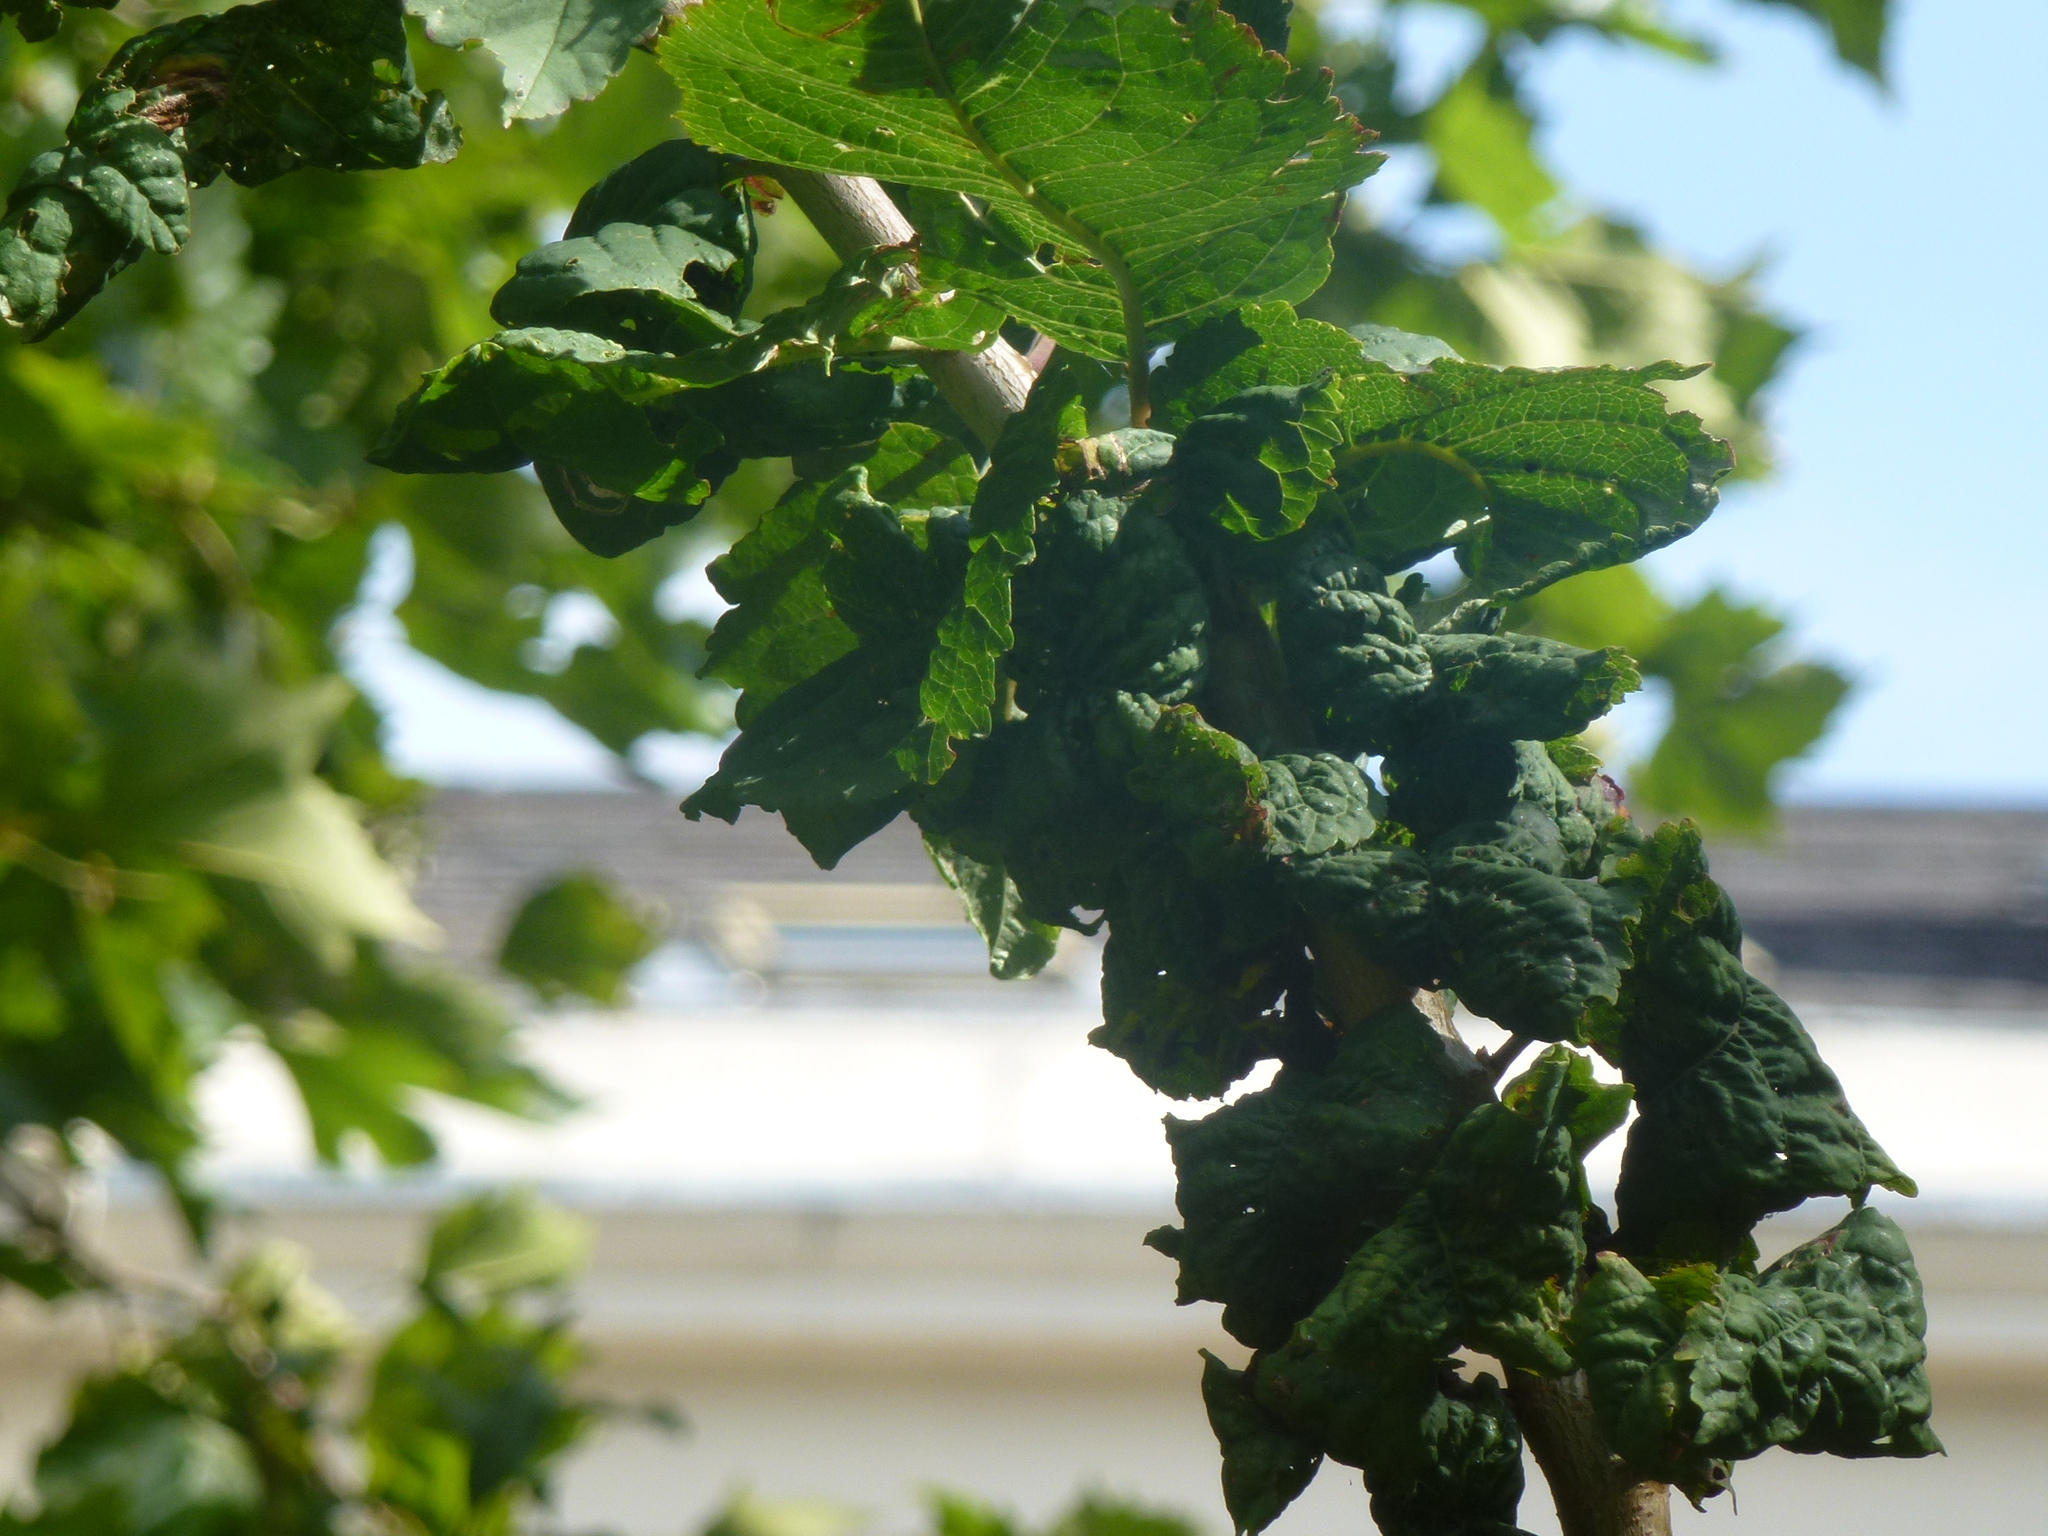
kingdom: Animalia
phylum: Arthropoda
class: Insecta
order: Hemiptera
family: Aphididae
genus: Myzus
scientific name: Myzus cerasi
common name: Black cherry aphid
